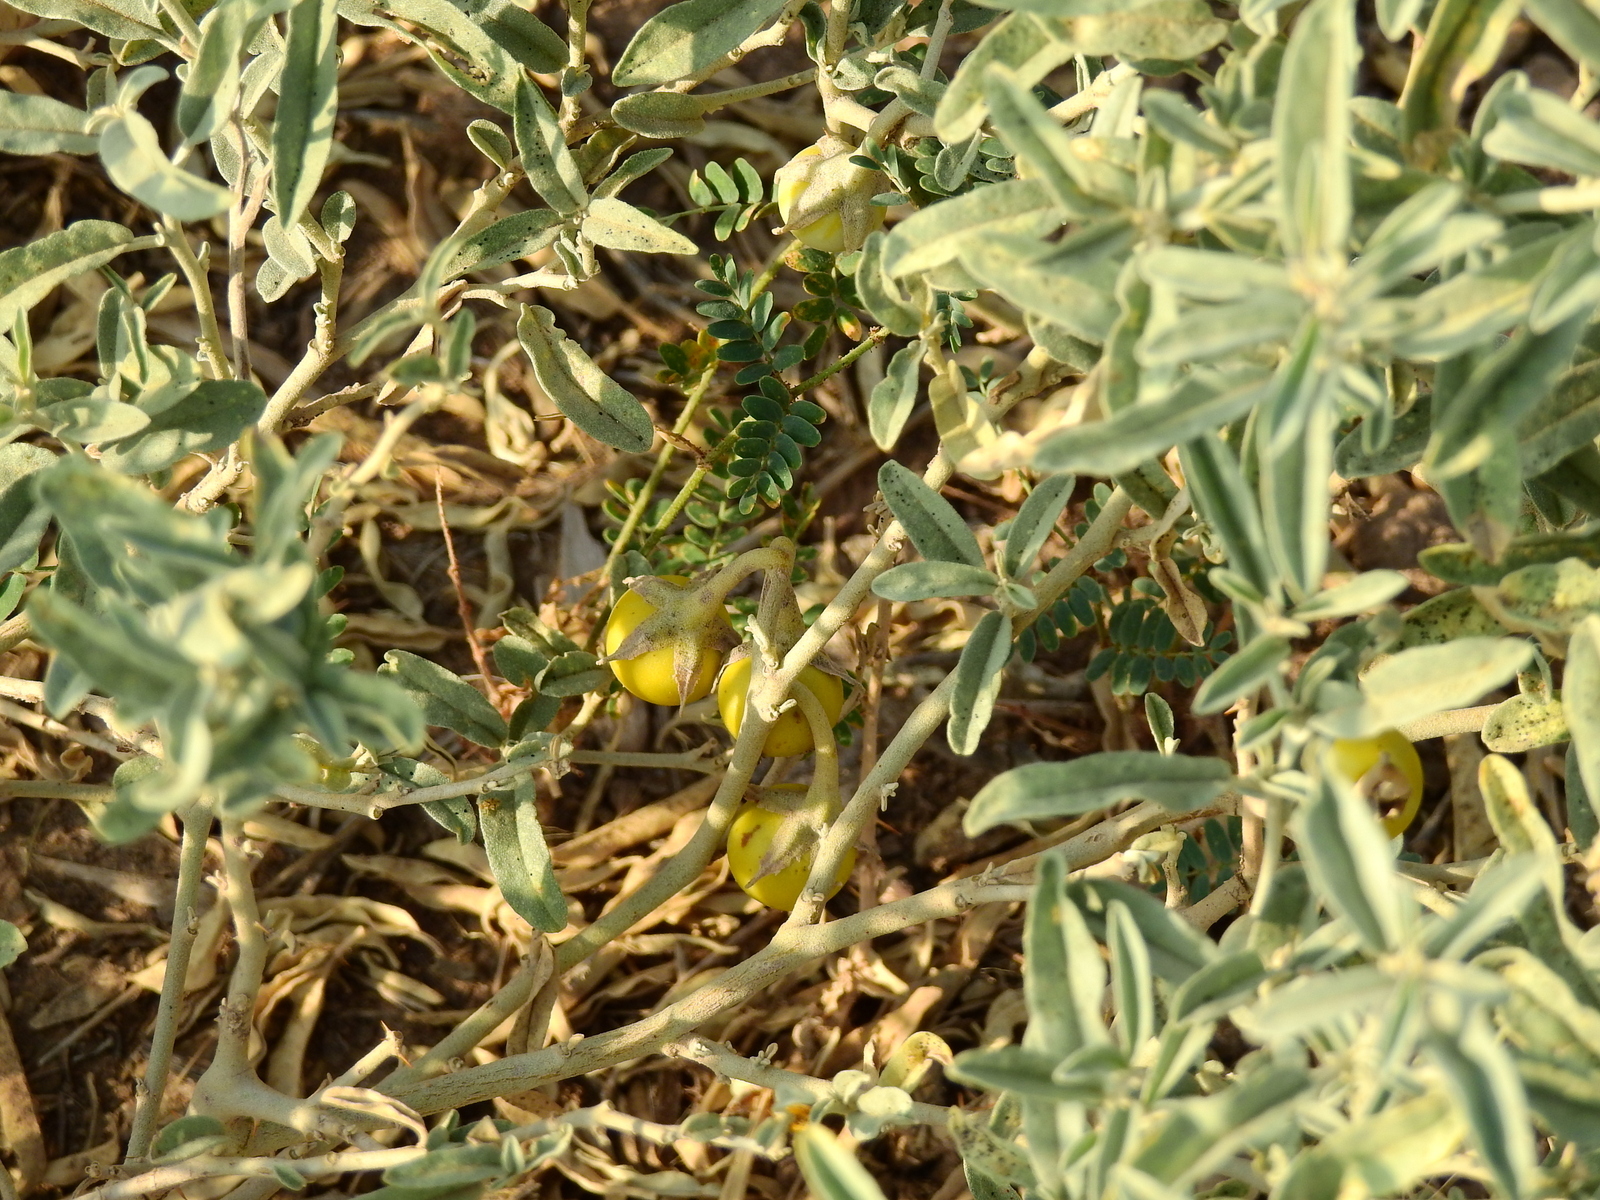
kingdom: Plantae
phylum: Tracheophyta
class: Magnoliopsida
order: Solanales
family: Solanaceae
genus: Solanum
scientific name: Solanum elaeagnifolium
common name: Silverleaf nightshade
